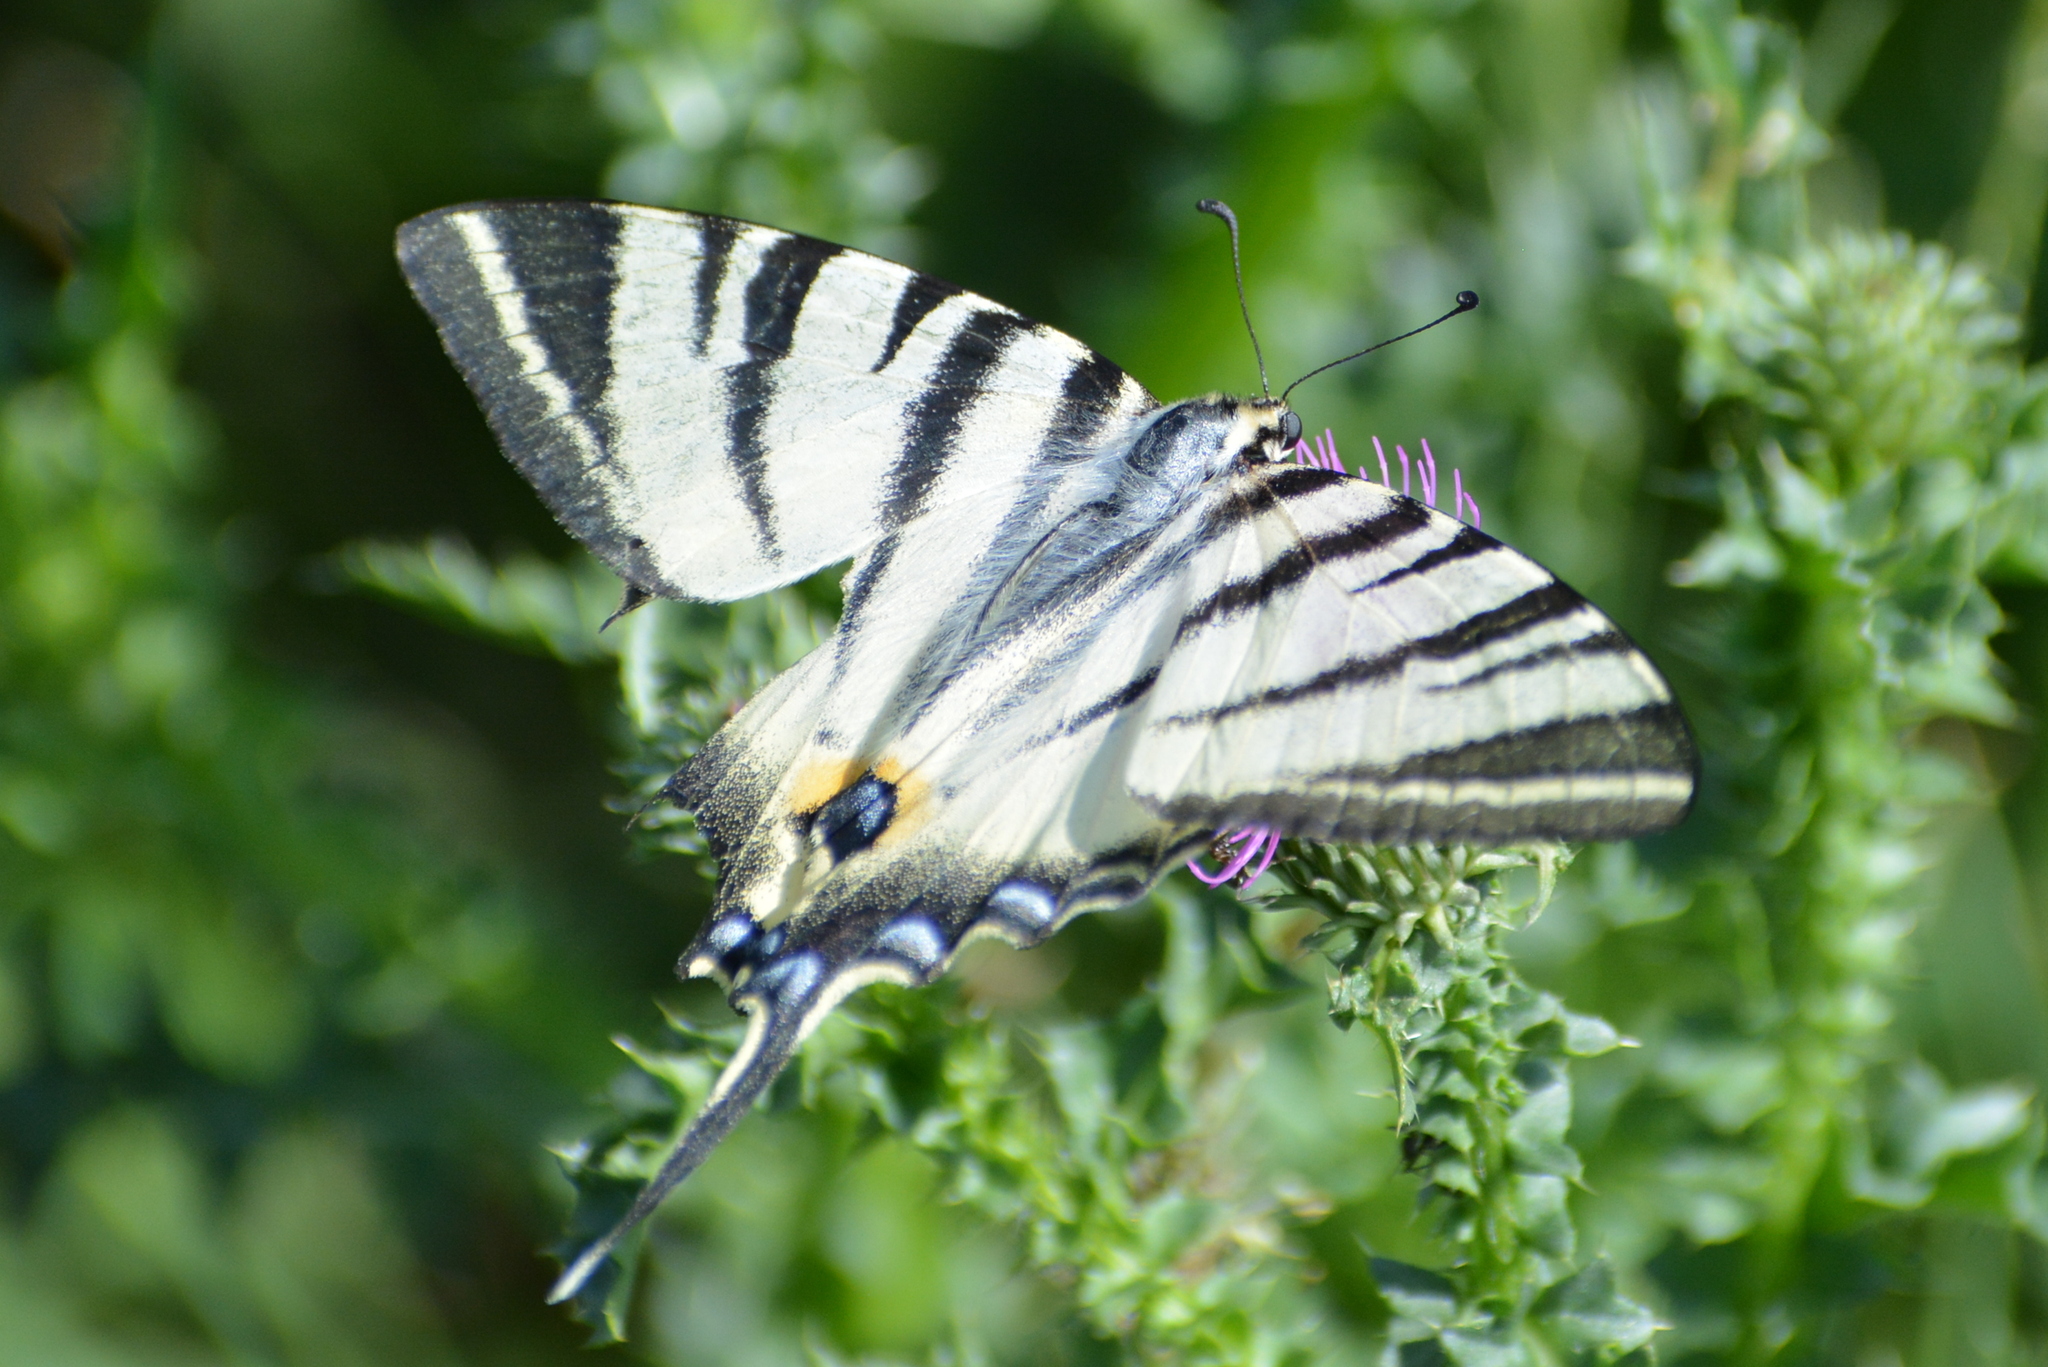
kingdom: Animalia
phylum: Arthropoda
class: Insecta
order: Lepidoptera
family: Papilionidae
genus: Iphiclides
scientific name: Iphiclides podalirius
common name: Scarce swallowtail
